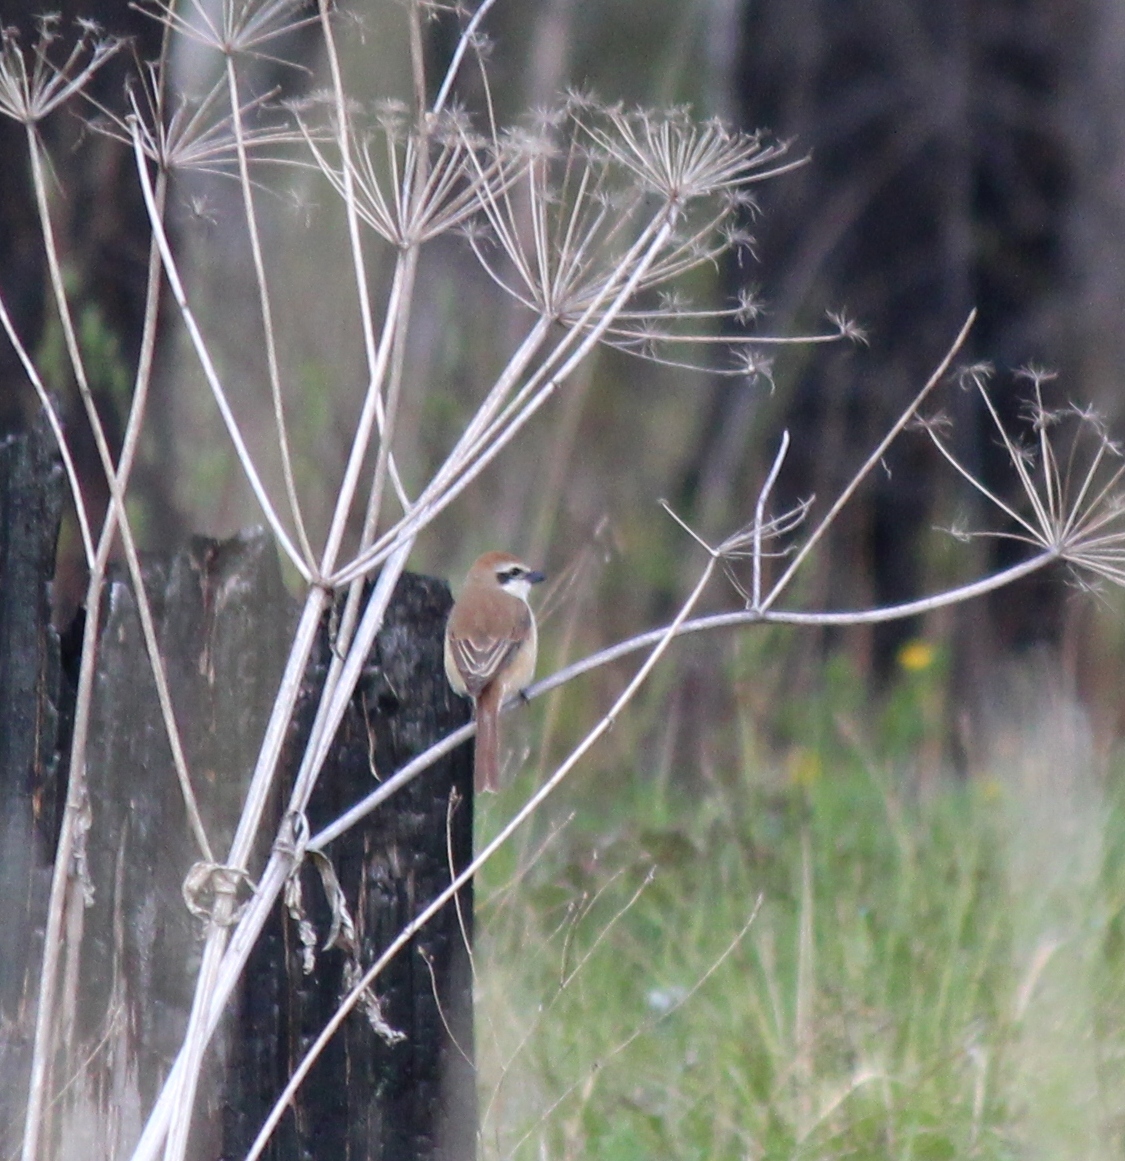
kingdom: Animalia
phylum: Chordata
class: Aves
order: Passeriformes
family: Laniidae
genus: Lanius
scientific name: Lanius cristatus
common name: Brown shrike
